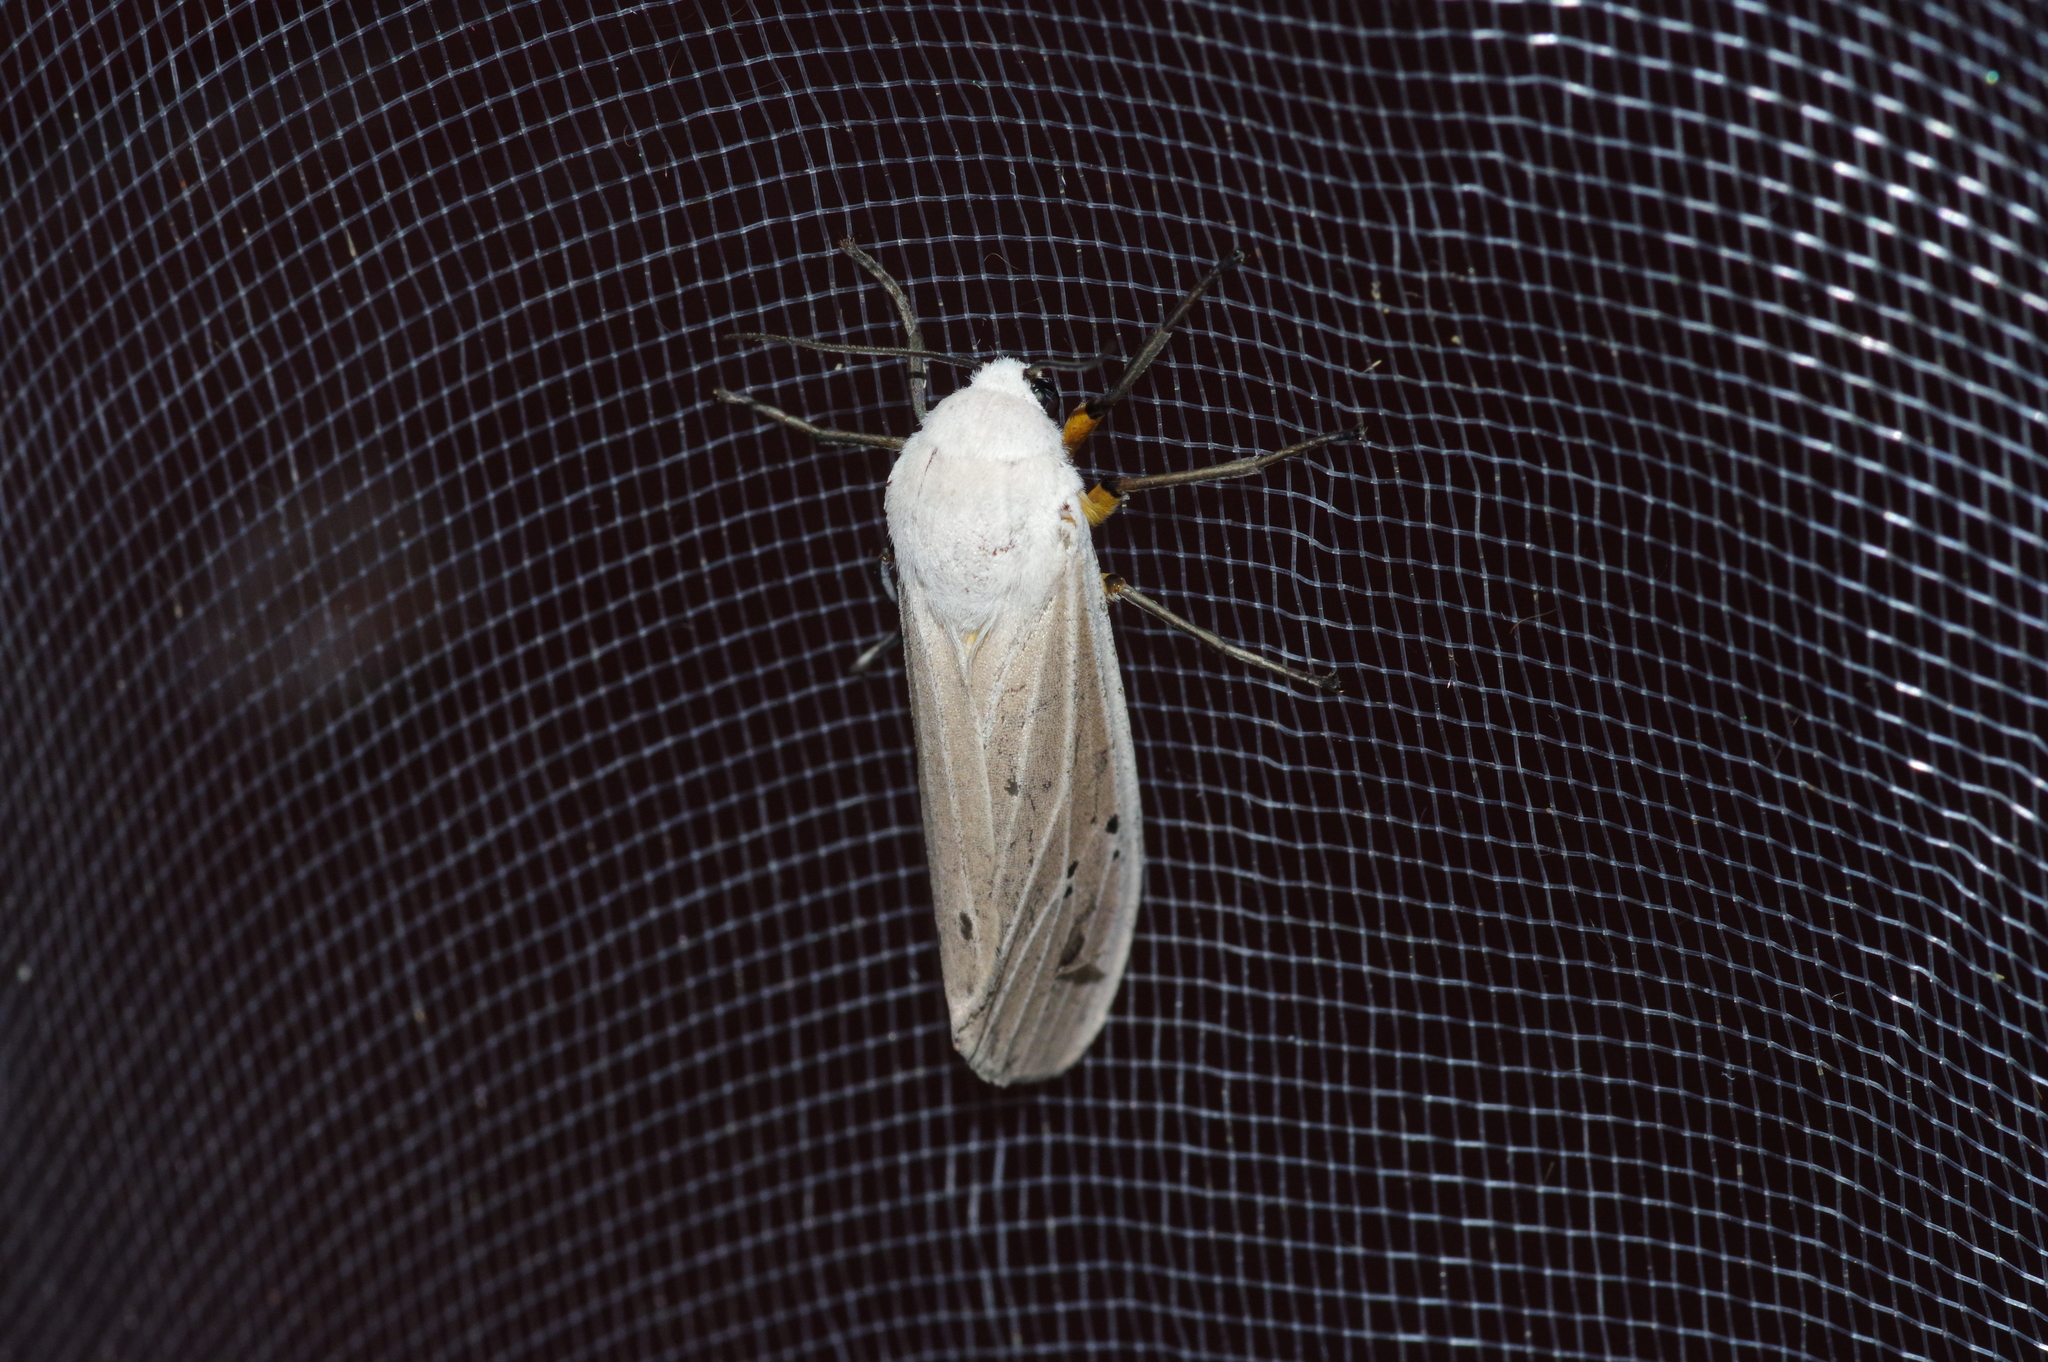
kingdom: Animalia
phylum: Arthropoda
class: Insecta
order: Lepidoptera
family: Erebidae
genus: Creatonotos
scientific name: Creatonotos transiens
